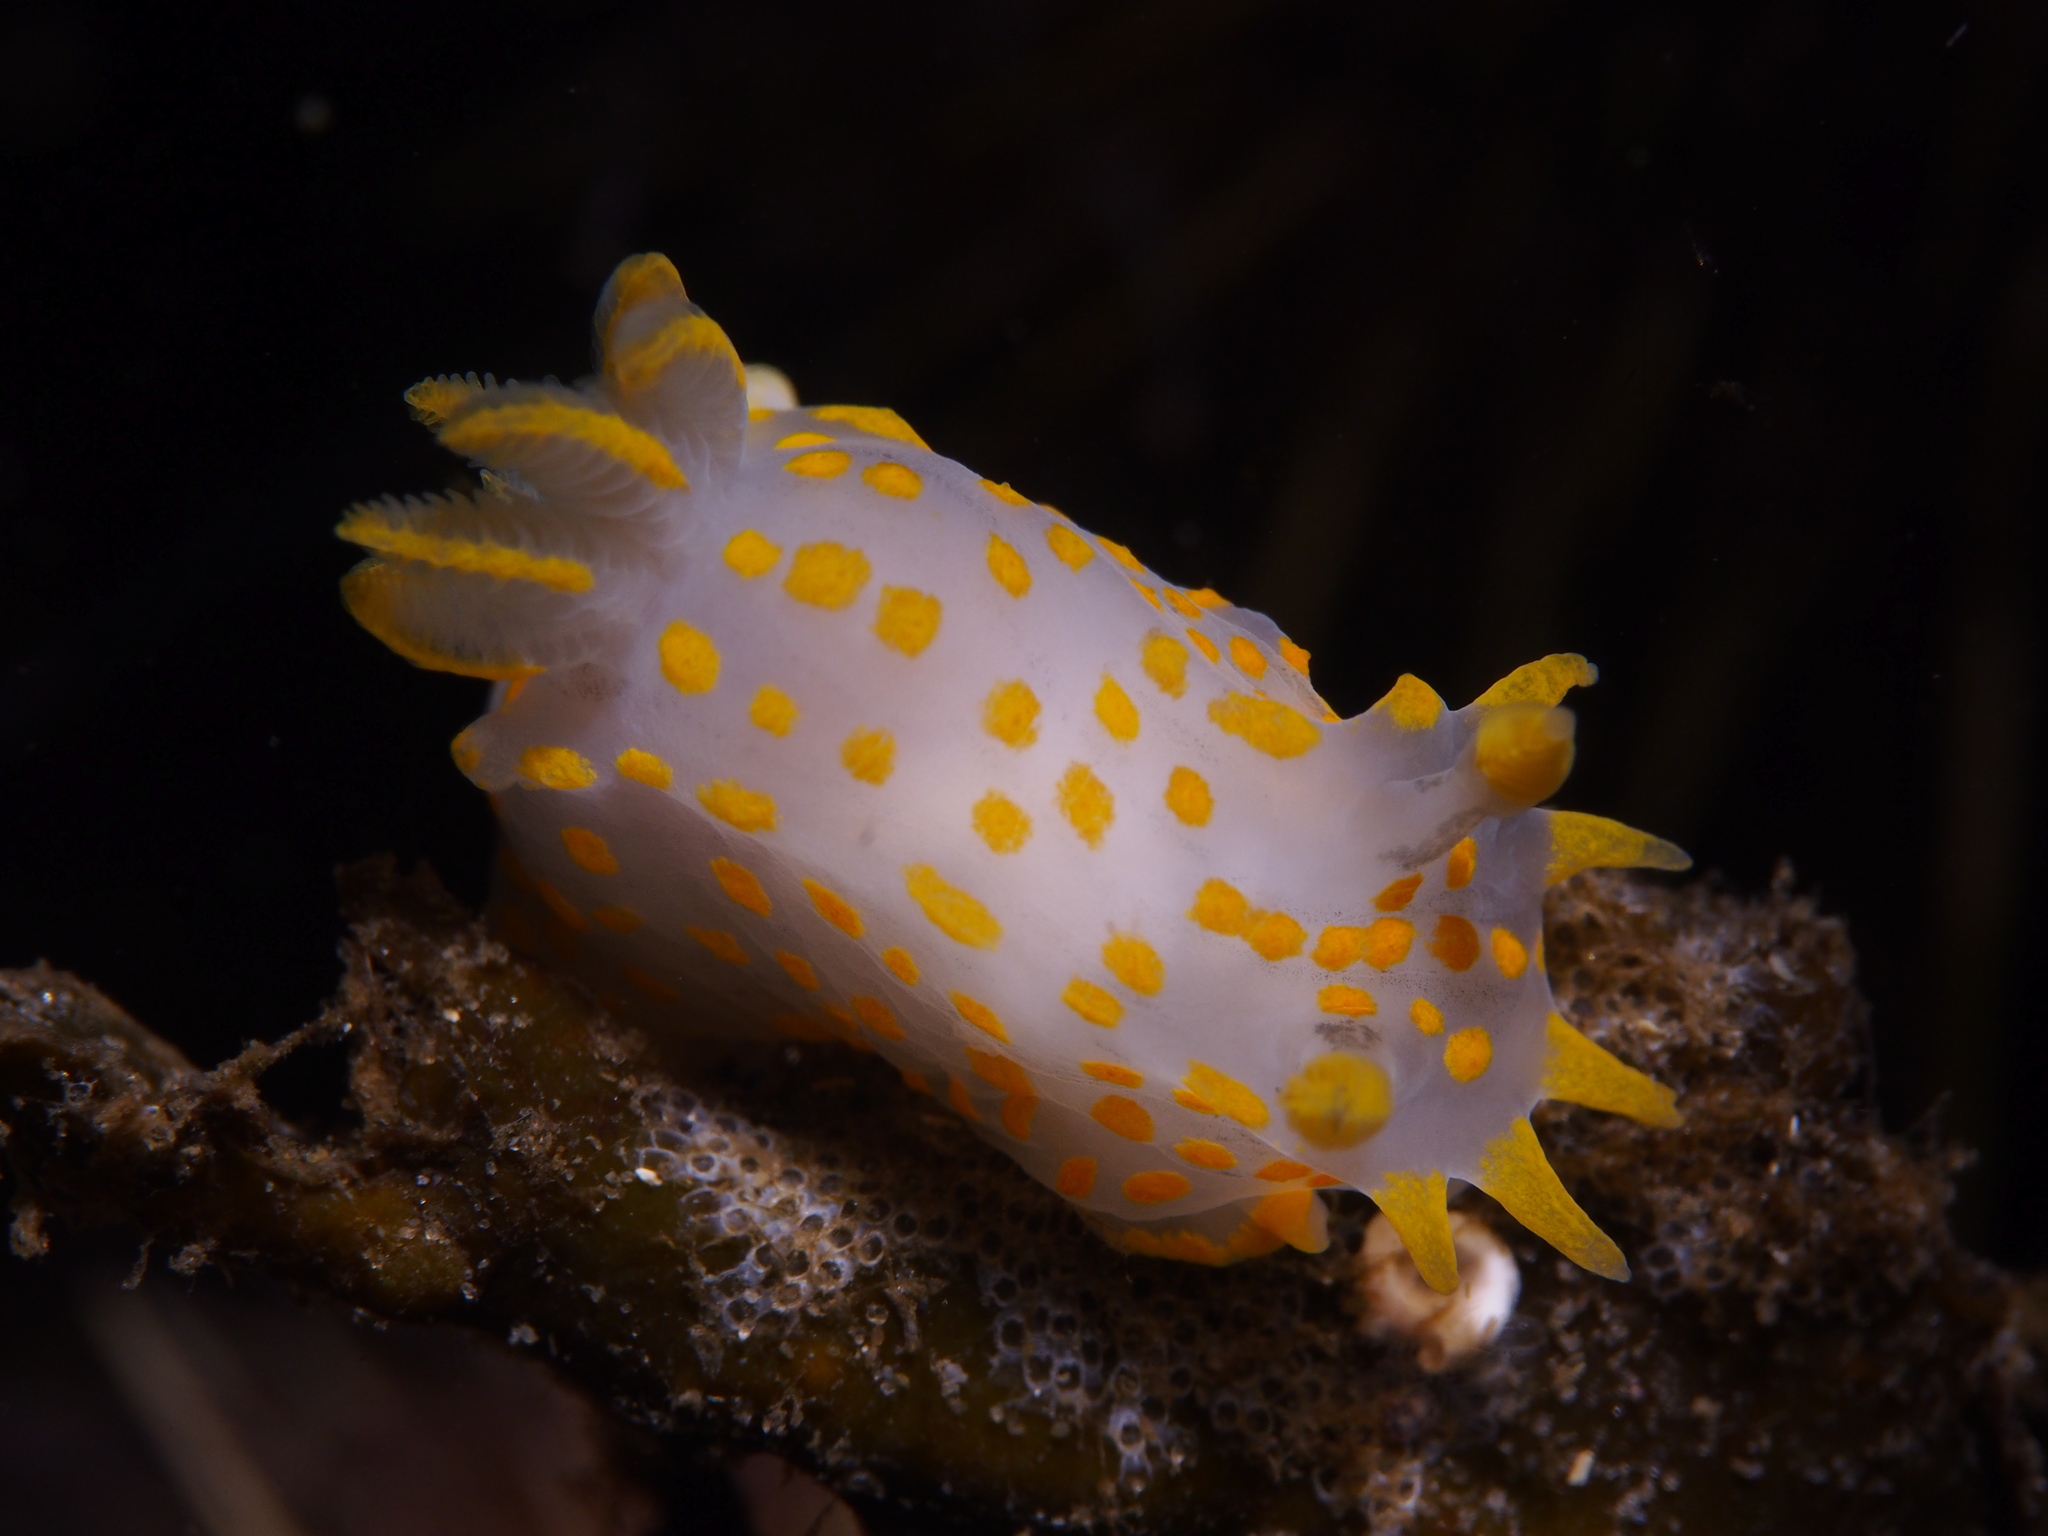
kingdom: Animalia
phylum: Mollusca
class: Gastropoda
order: Nudibranchia
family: Polyceridae
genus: Polycera
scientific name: Polycera quadrilineata
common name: Four-striped polycera
